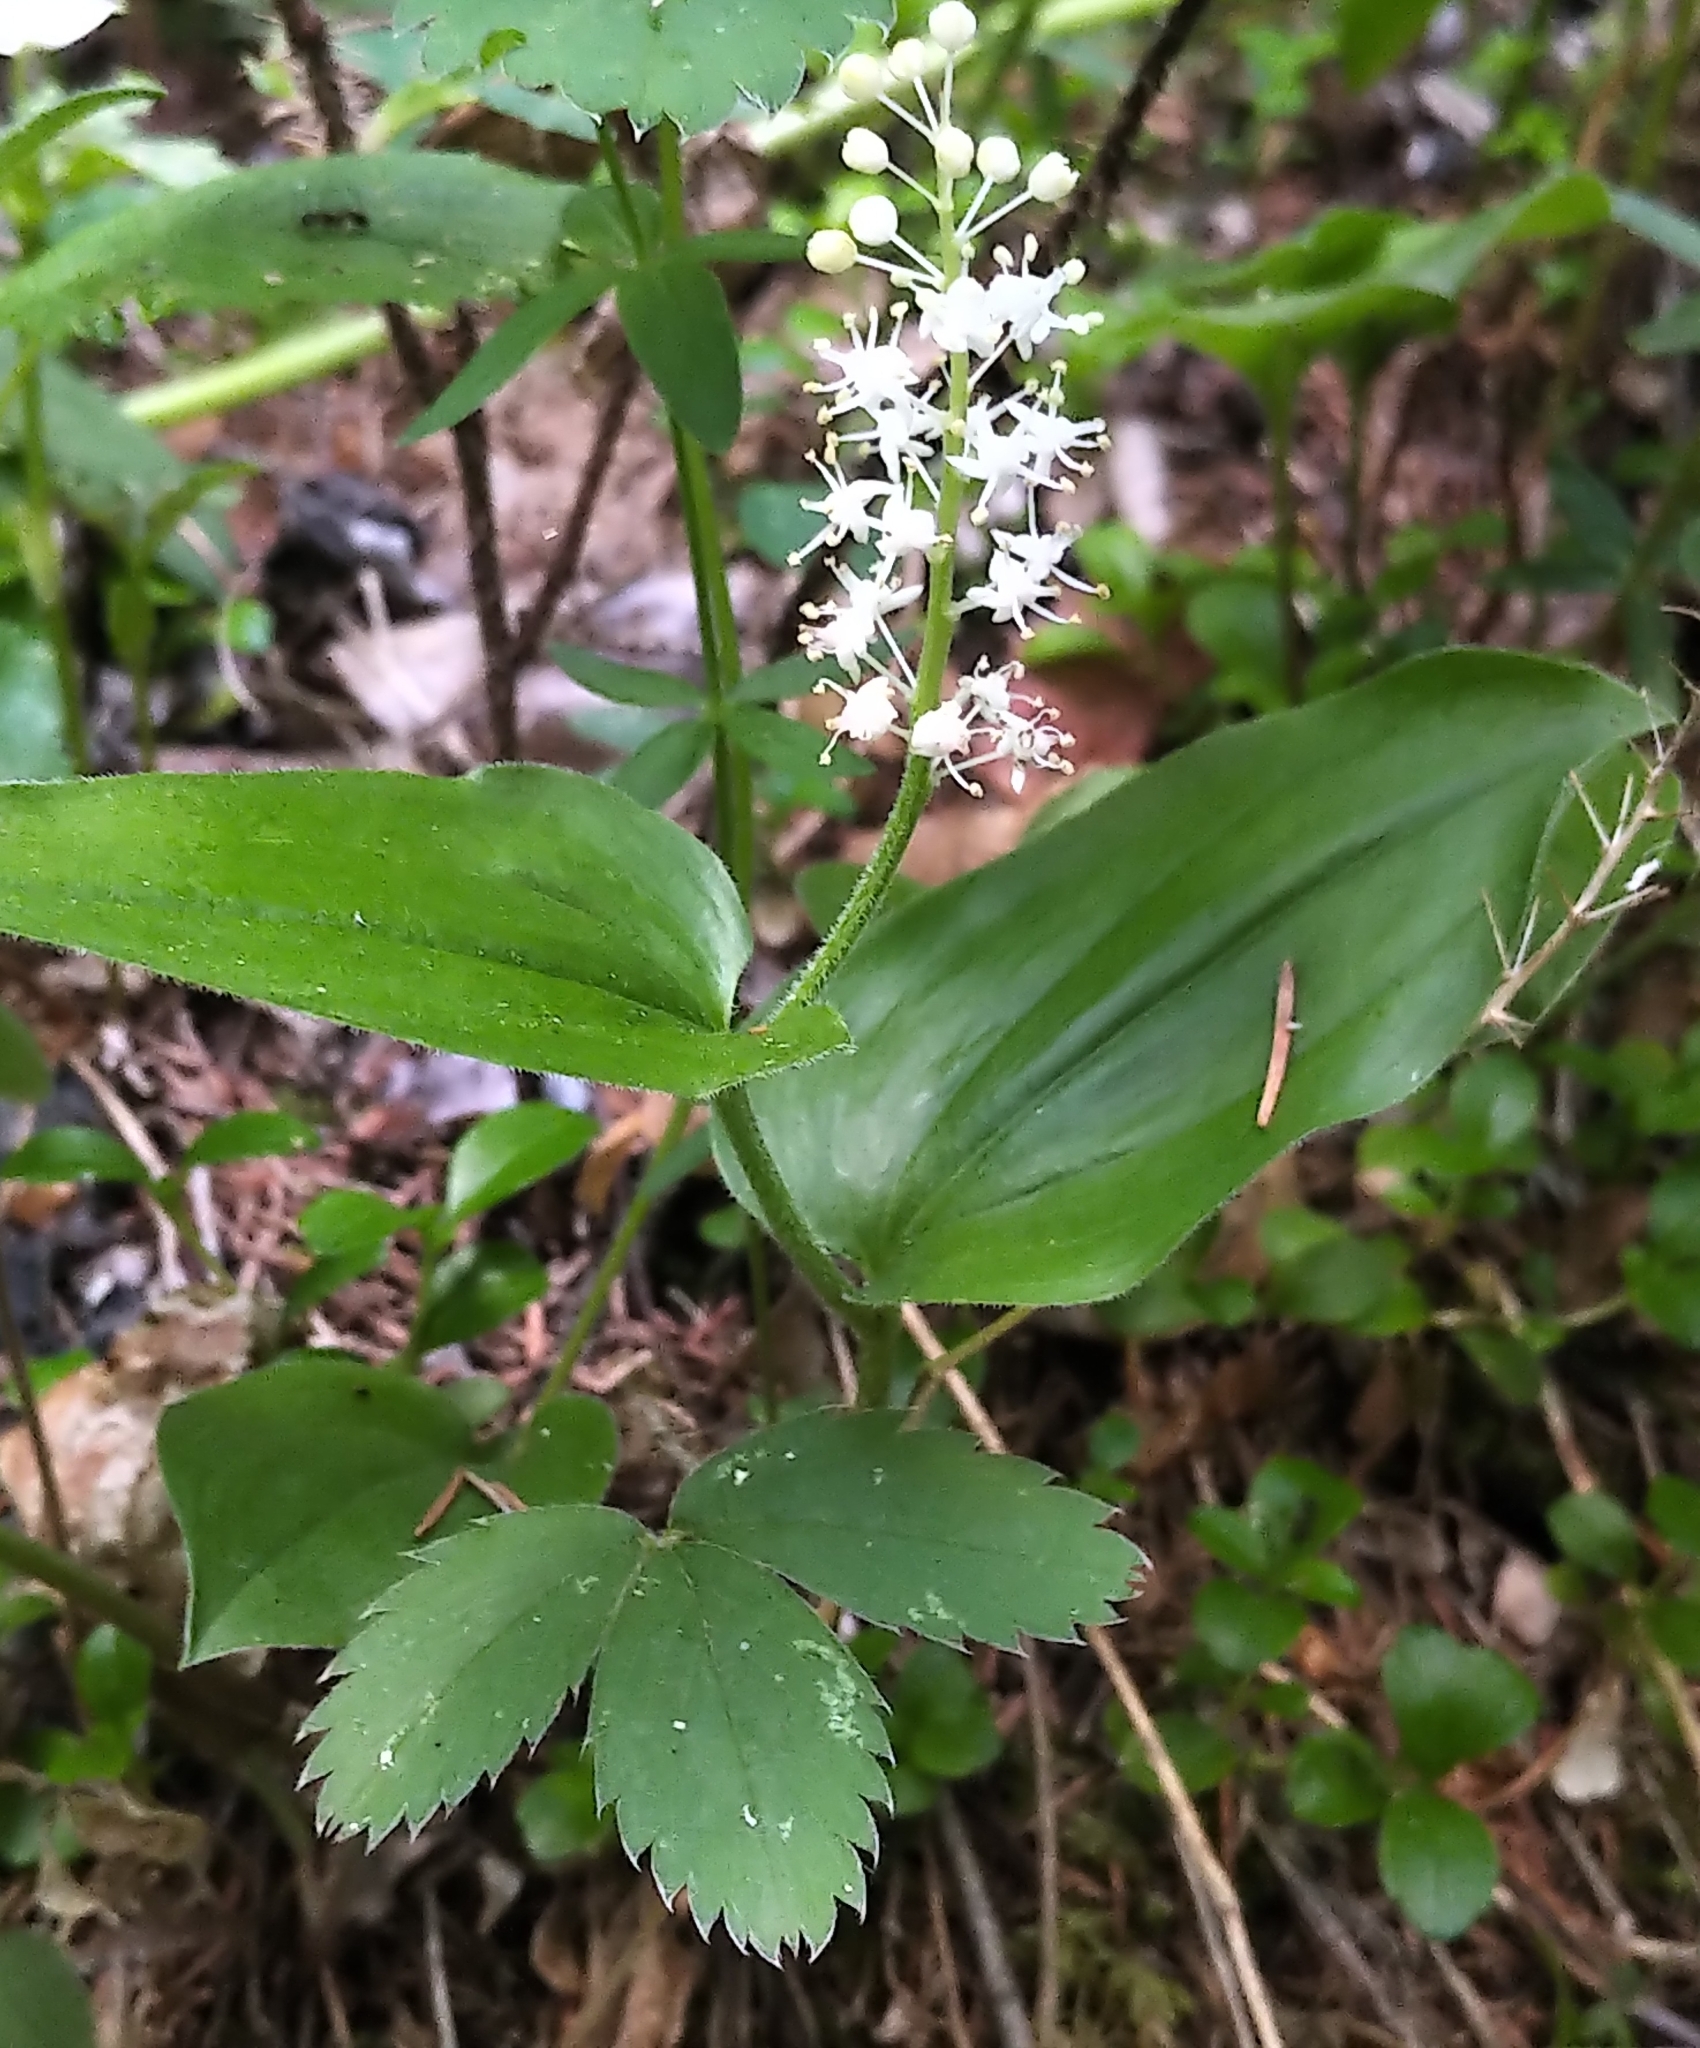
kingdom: Plantae
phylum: Tracheophyta
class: Liliopsida
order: Asparagales
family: Asparagaceae
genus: Maianthemum
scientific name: Maianthemum canadense
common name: False lily-of-the-valley
